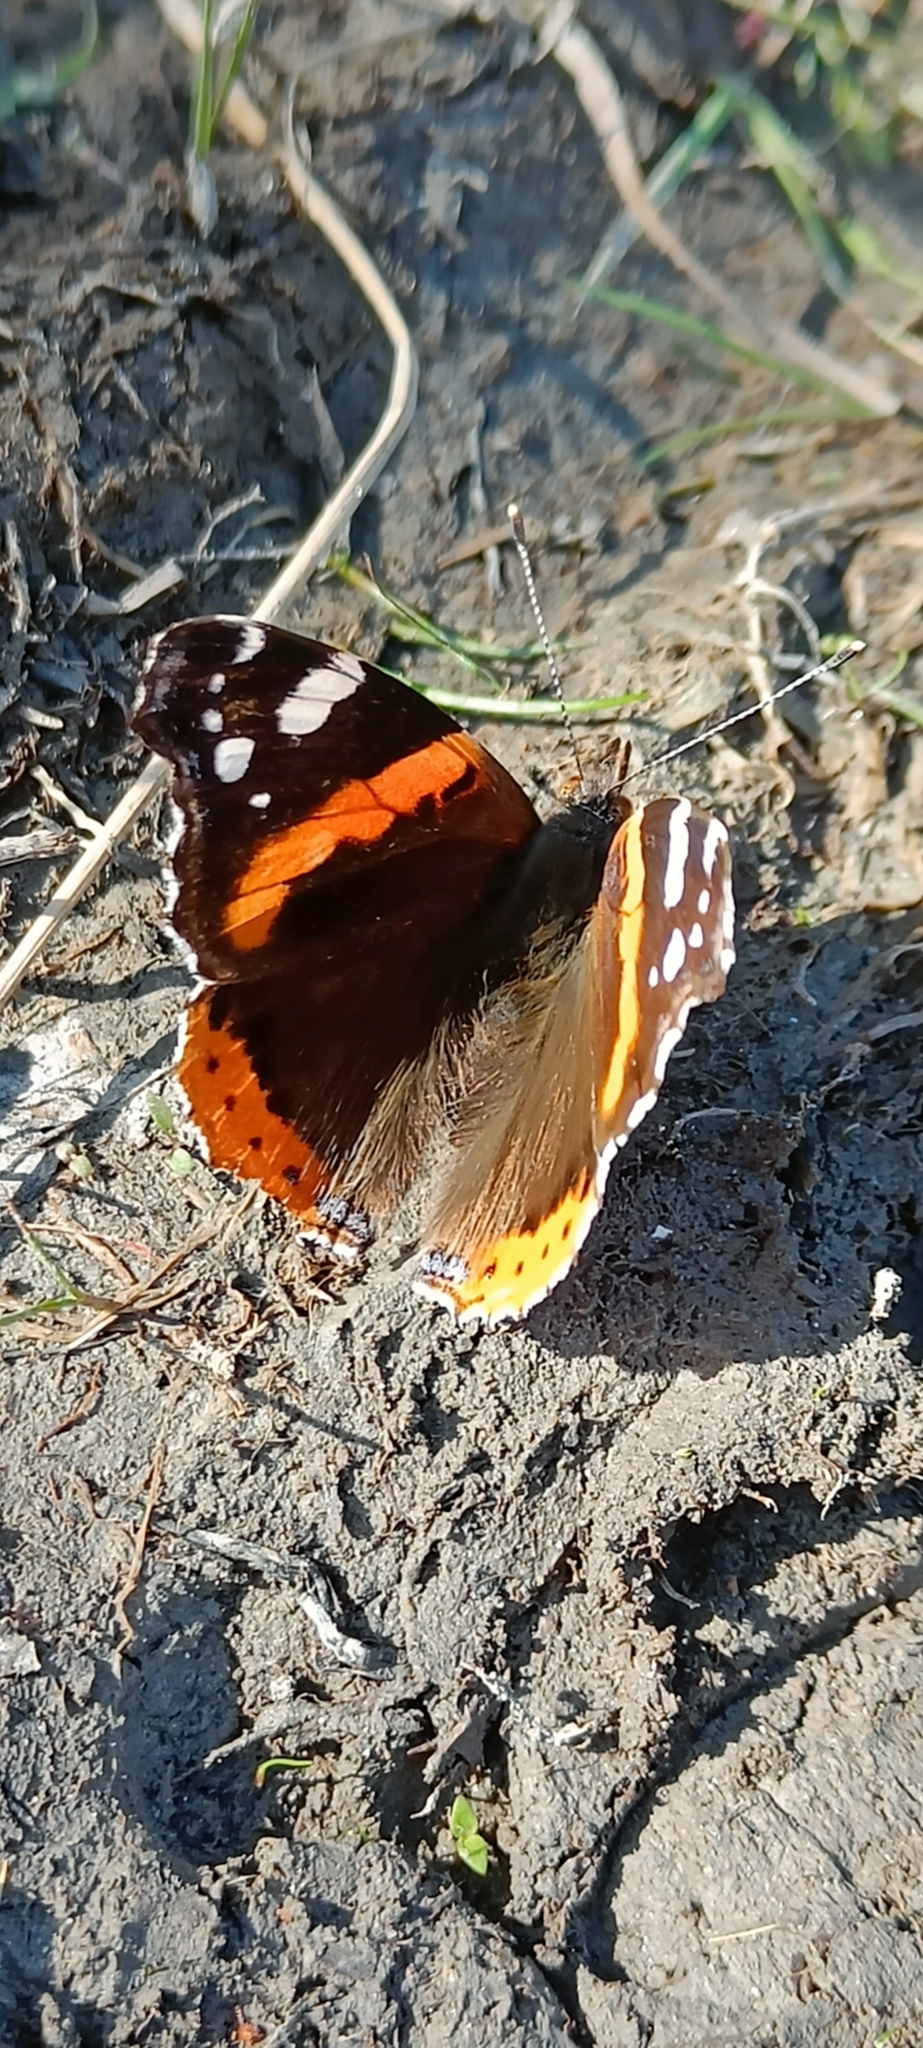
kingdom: Animalia
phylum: Arthropoda
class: Insecta
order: Lepidoptera
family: Nymphalidae
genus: Vanessa
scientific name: Vanessa atalanta
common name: Red admiral
